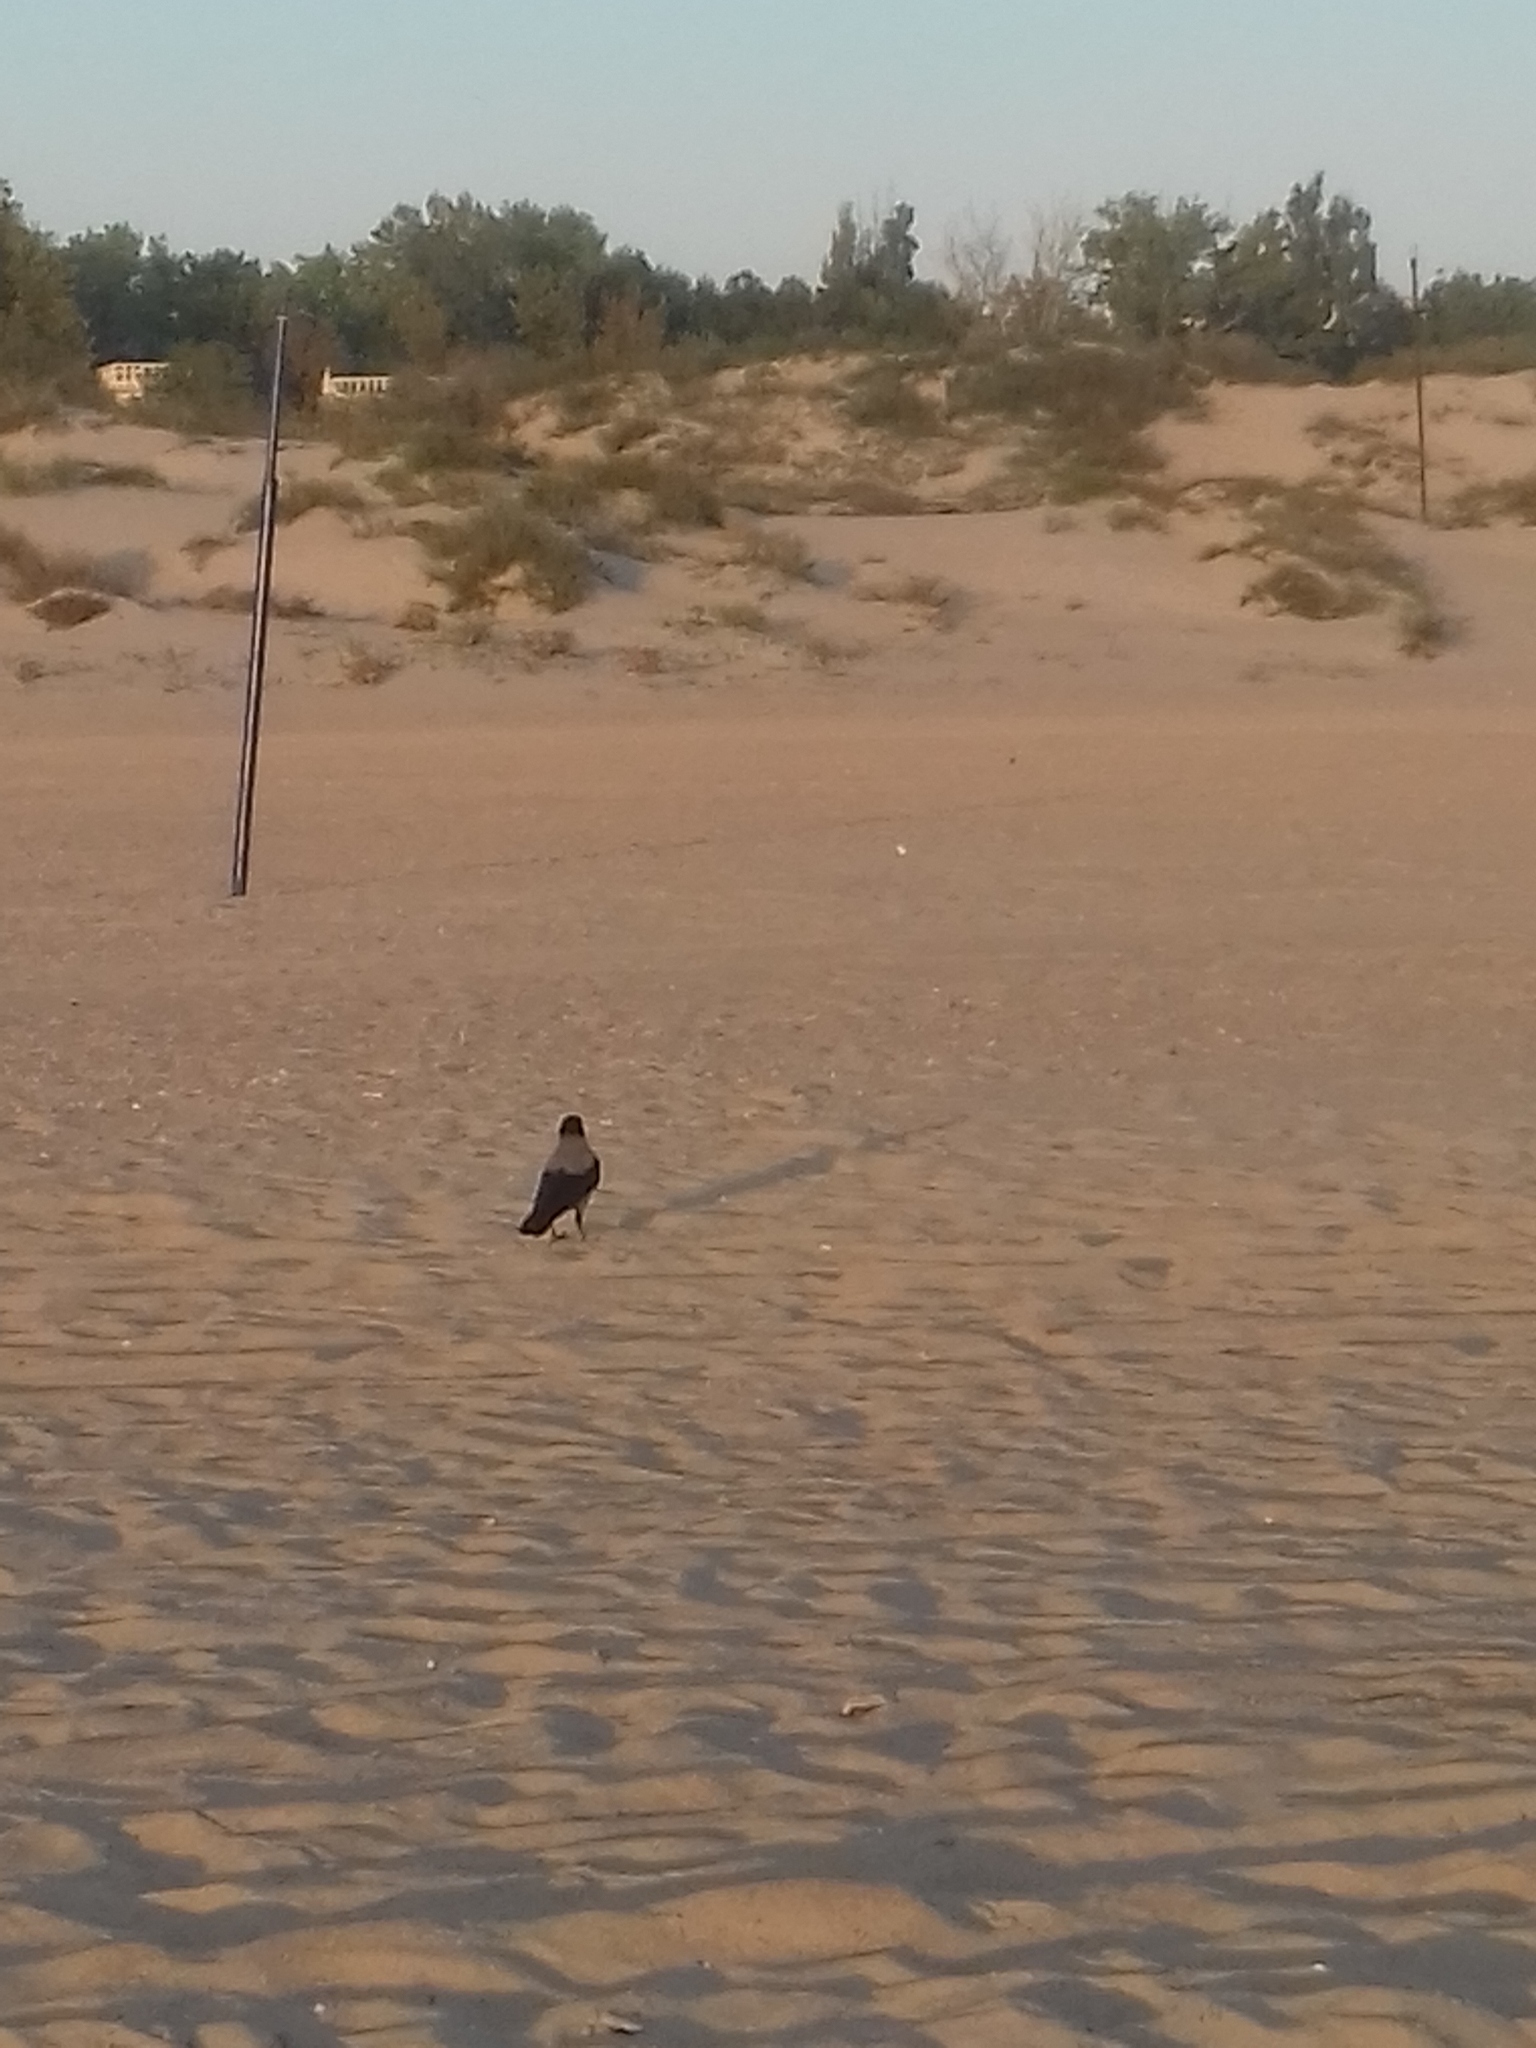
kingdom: Animalia
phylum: Chordata
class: Aves
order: Passeriformes
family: Corvidae
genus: Corvus
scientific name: Corvus cornix
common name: Hooded crow
